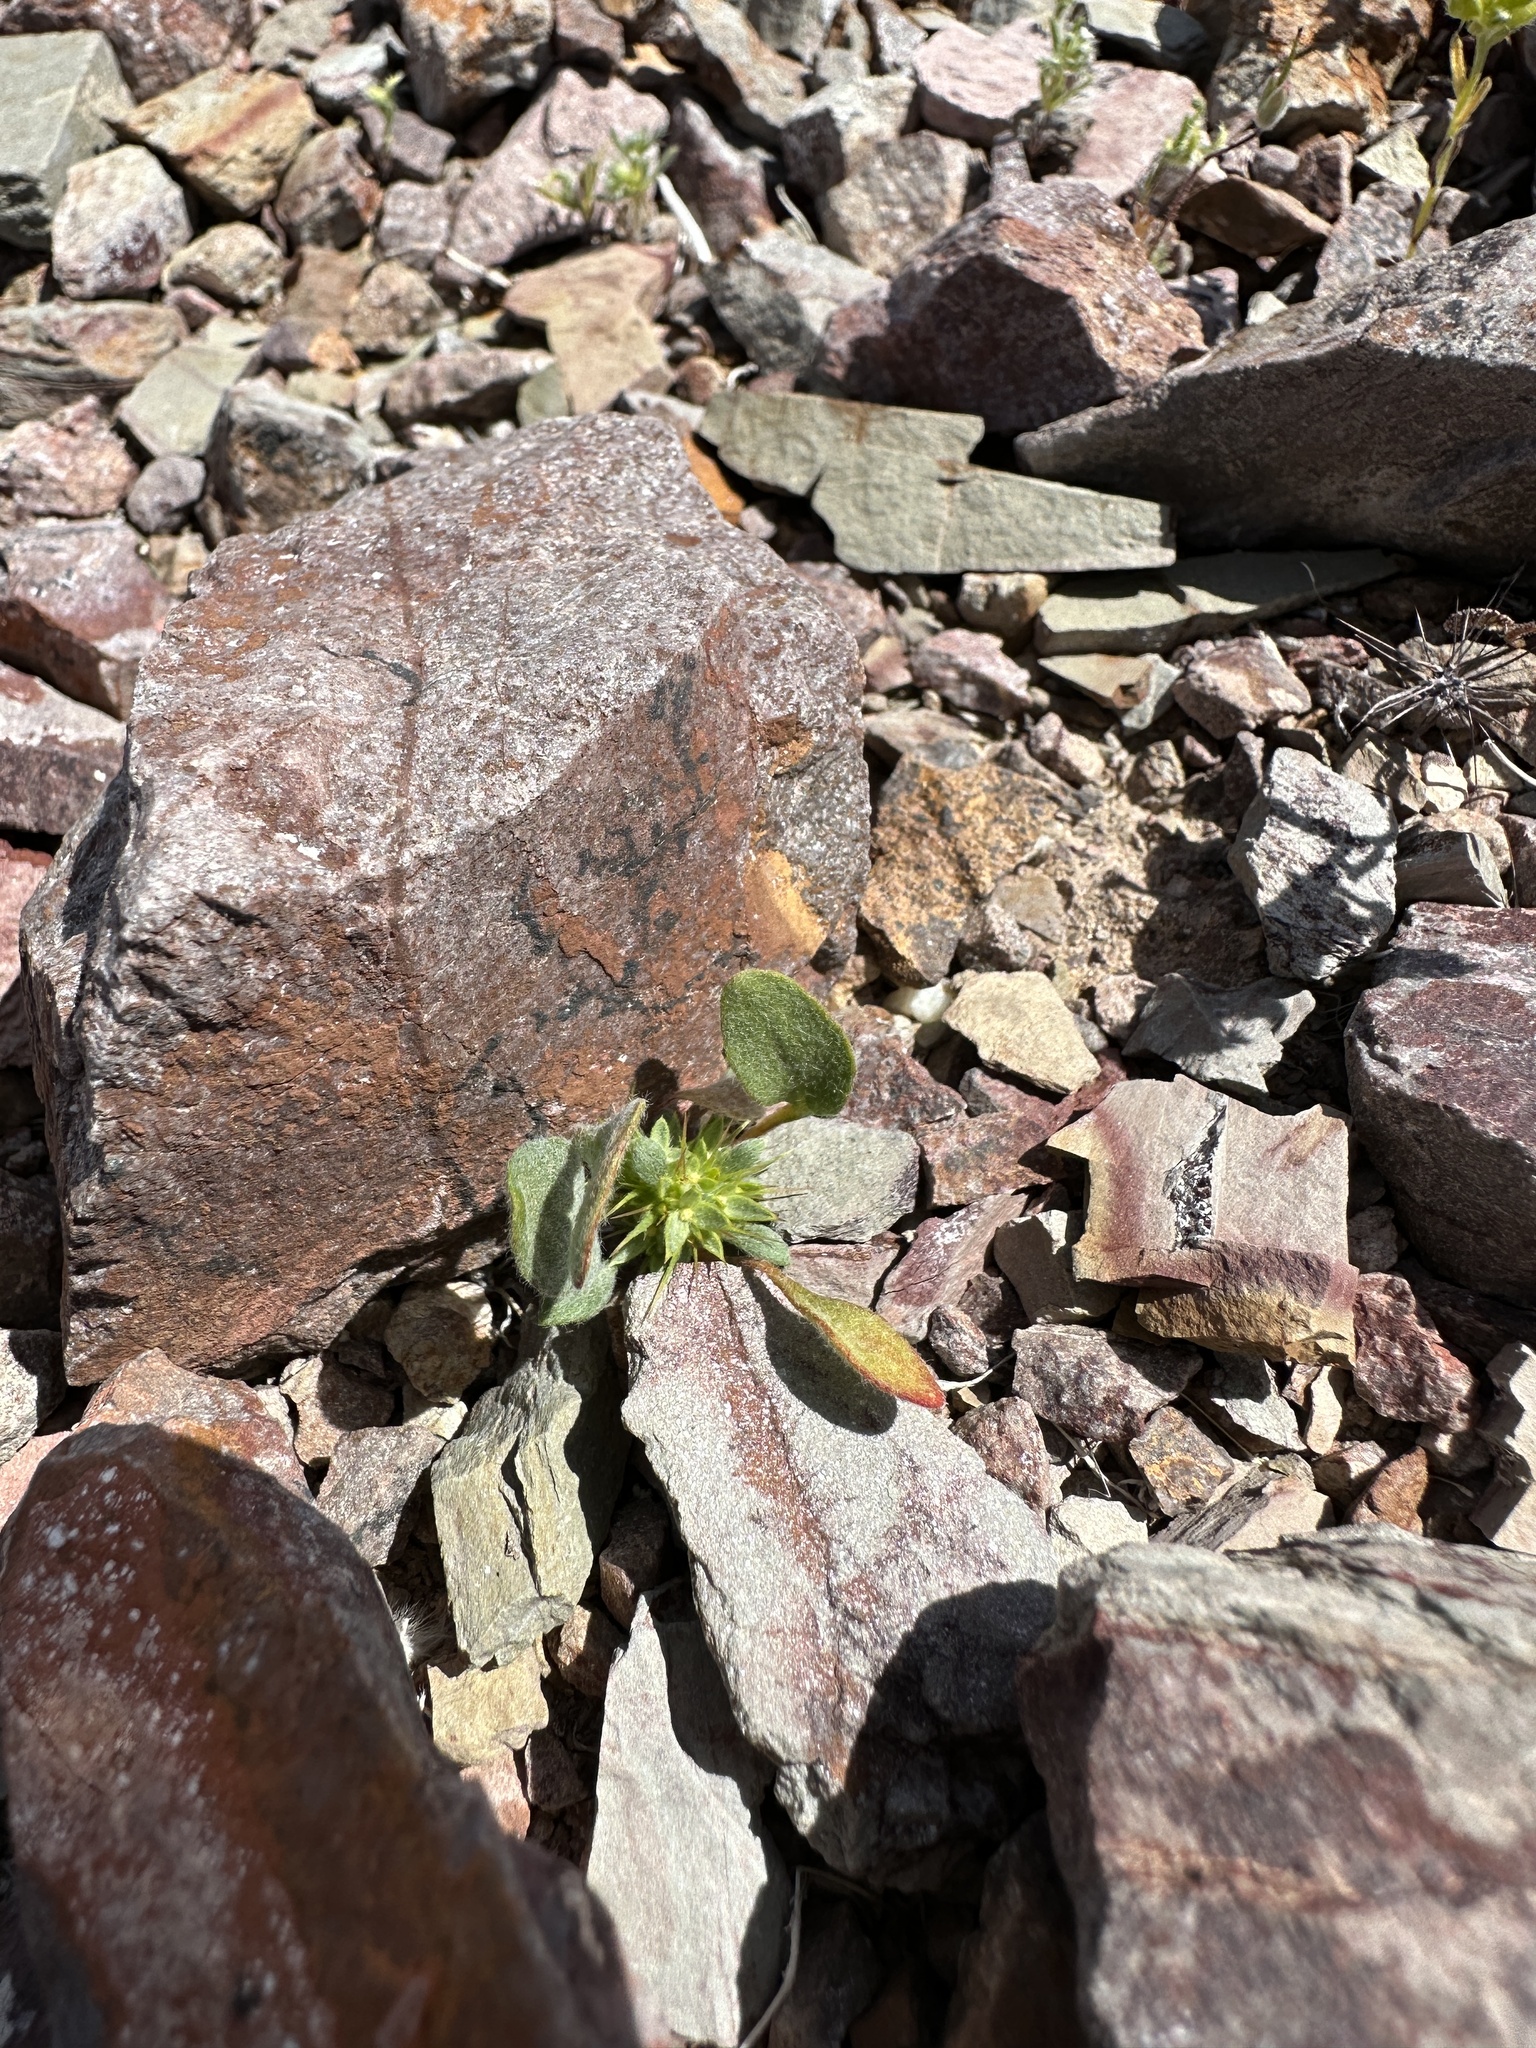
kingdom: Plantae
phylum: Tracheophyta
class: Magnoliopsida
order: Caryophyllales
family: Polygonaceae
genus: Chorizanthe
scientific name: Chorizanthe rigida
